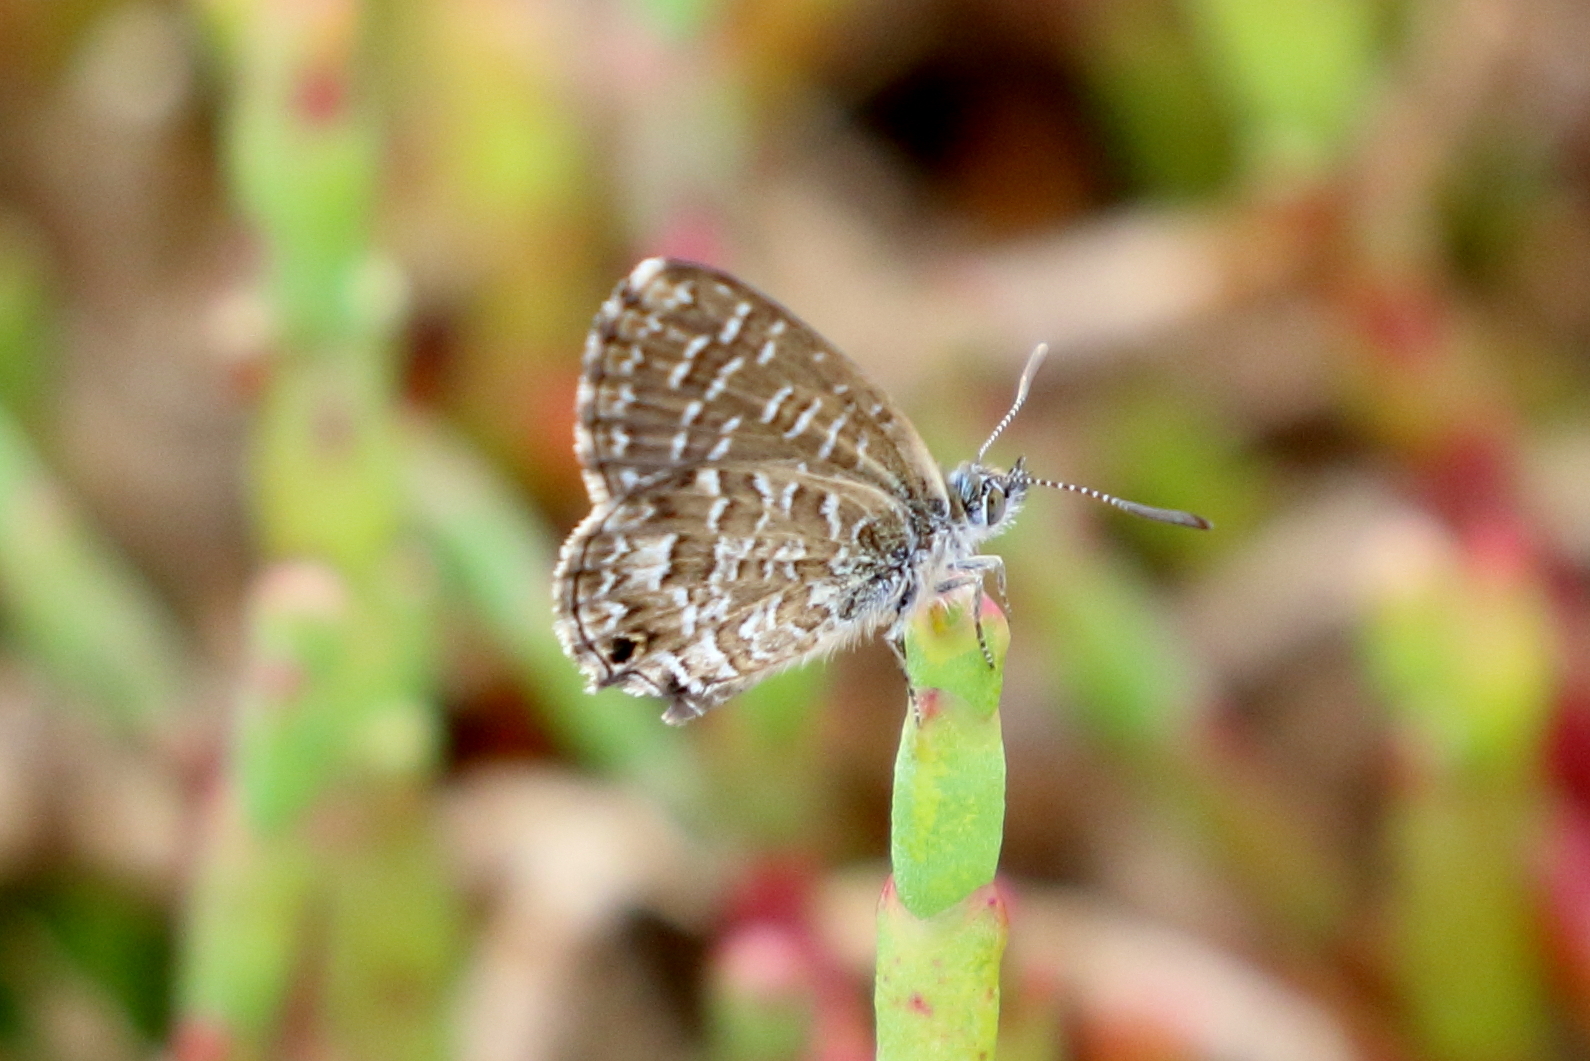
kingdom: Animalia
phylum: Arthropoda
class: Insecta
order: Lepidoptera
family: Lycaenidae
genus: Theclinesthes
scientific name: Theclinesthes sulpitius
